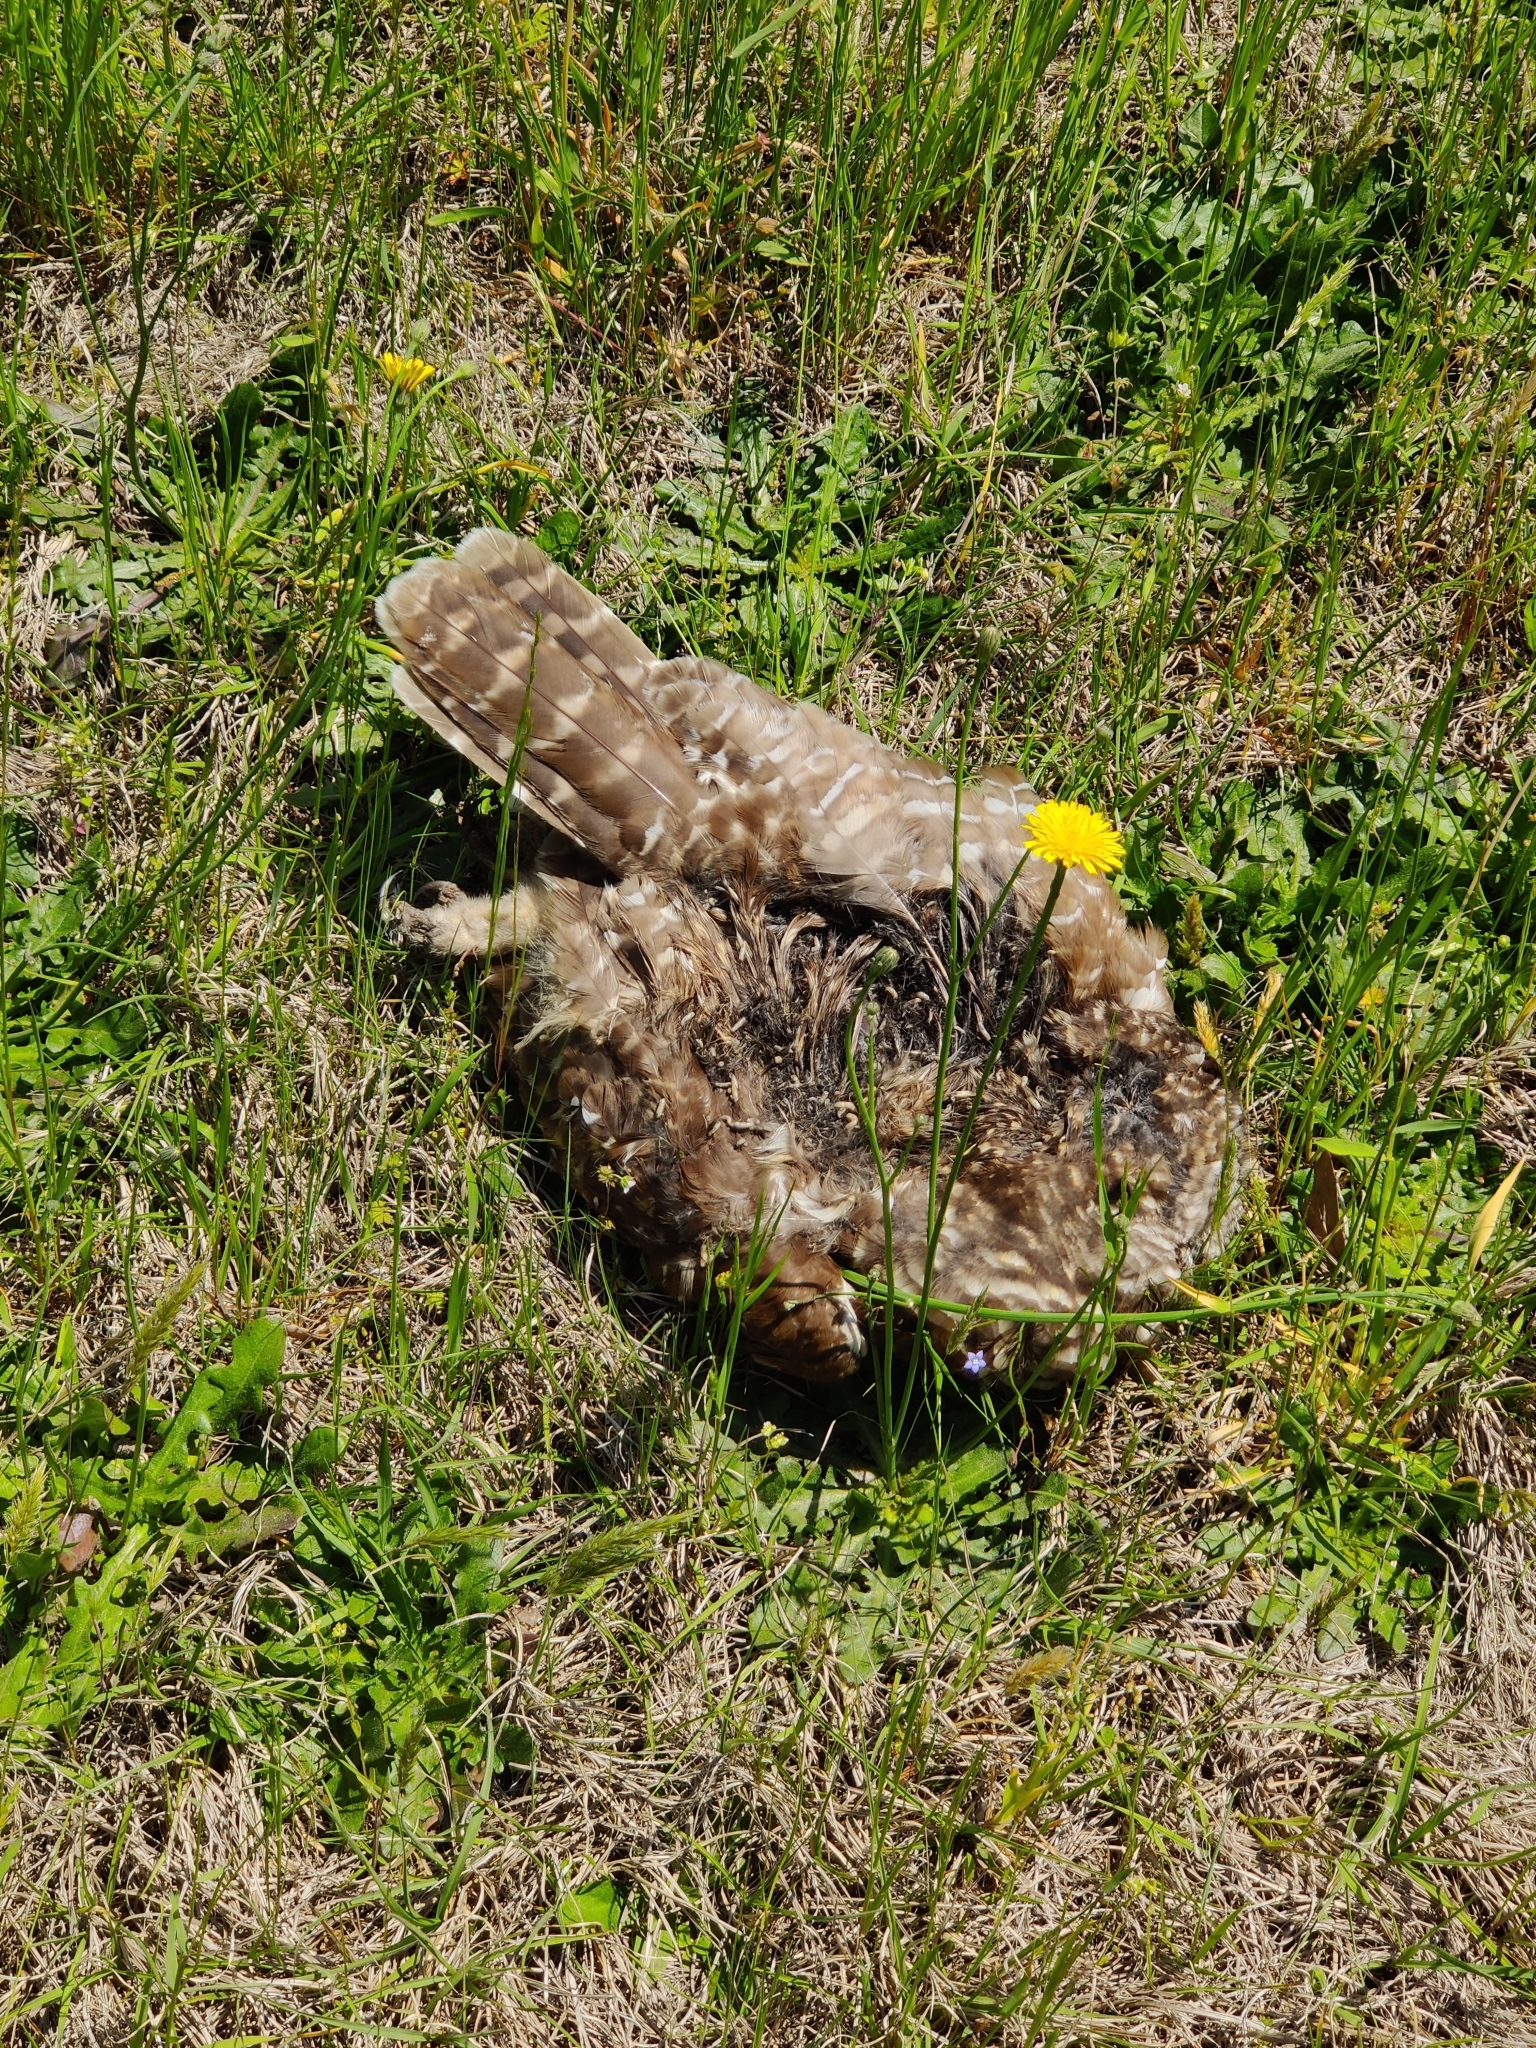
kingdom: Animalia
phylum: Chordata
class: Aves
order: Strigiformes
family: Strigidae
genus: Strix
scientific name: Strix varia
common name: Barred owl
